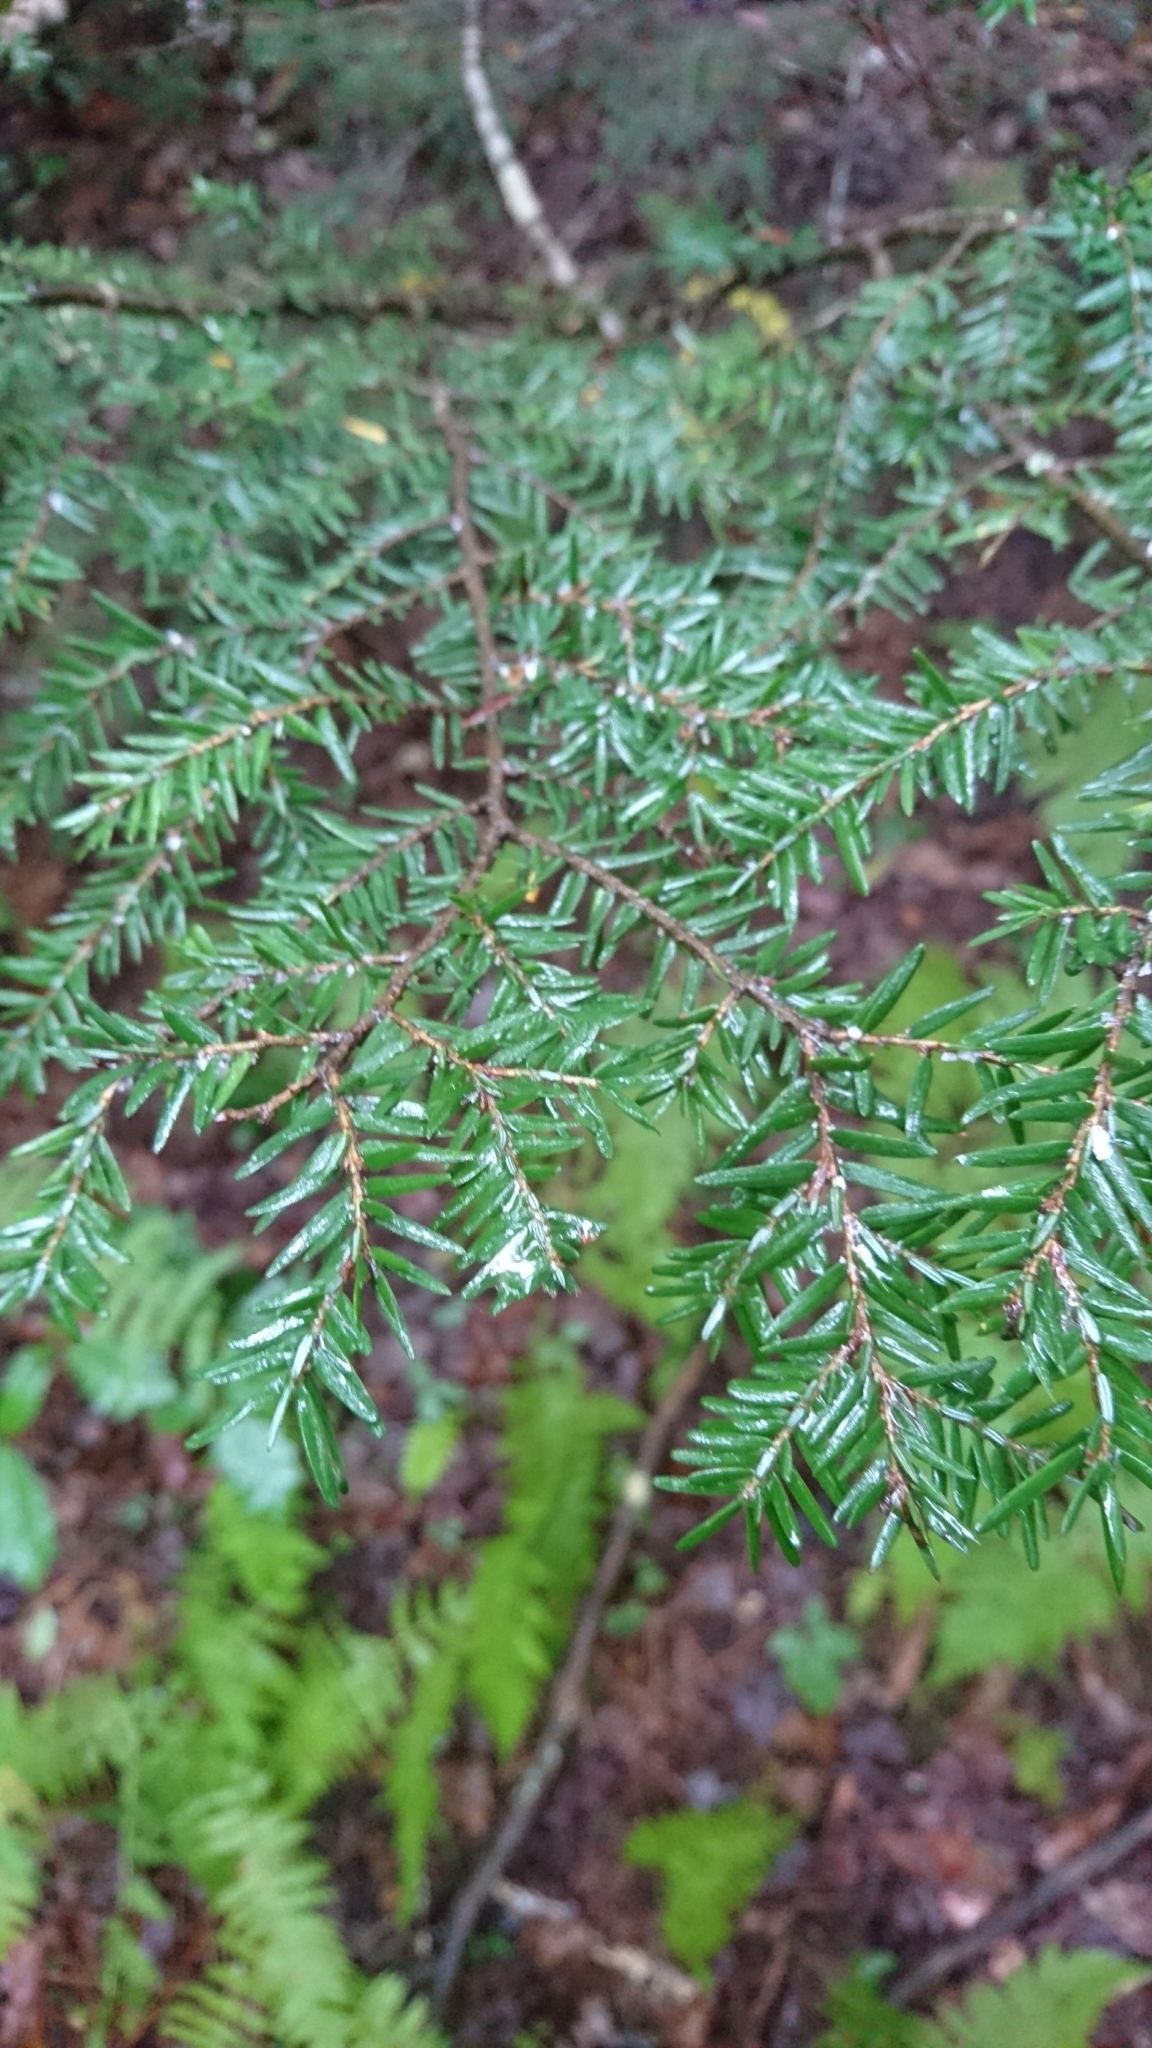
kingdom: Plantae
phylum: Tracheophyta
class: Pinopsida
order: Pinales
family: Pinaceae
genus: Tsuga
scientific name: Tsuga canadensis
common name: Eastern hemlock
